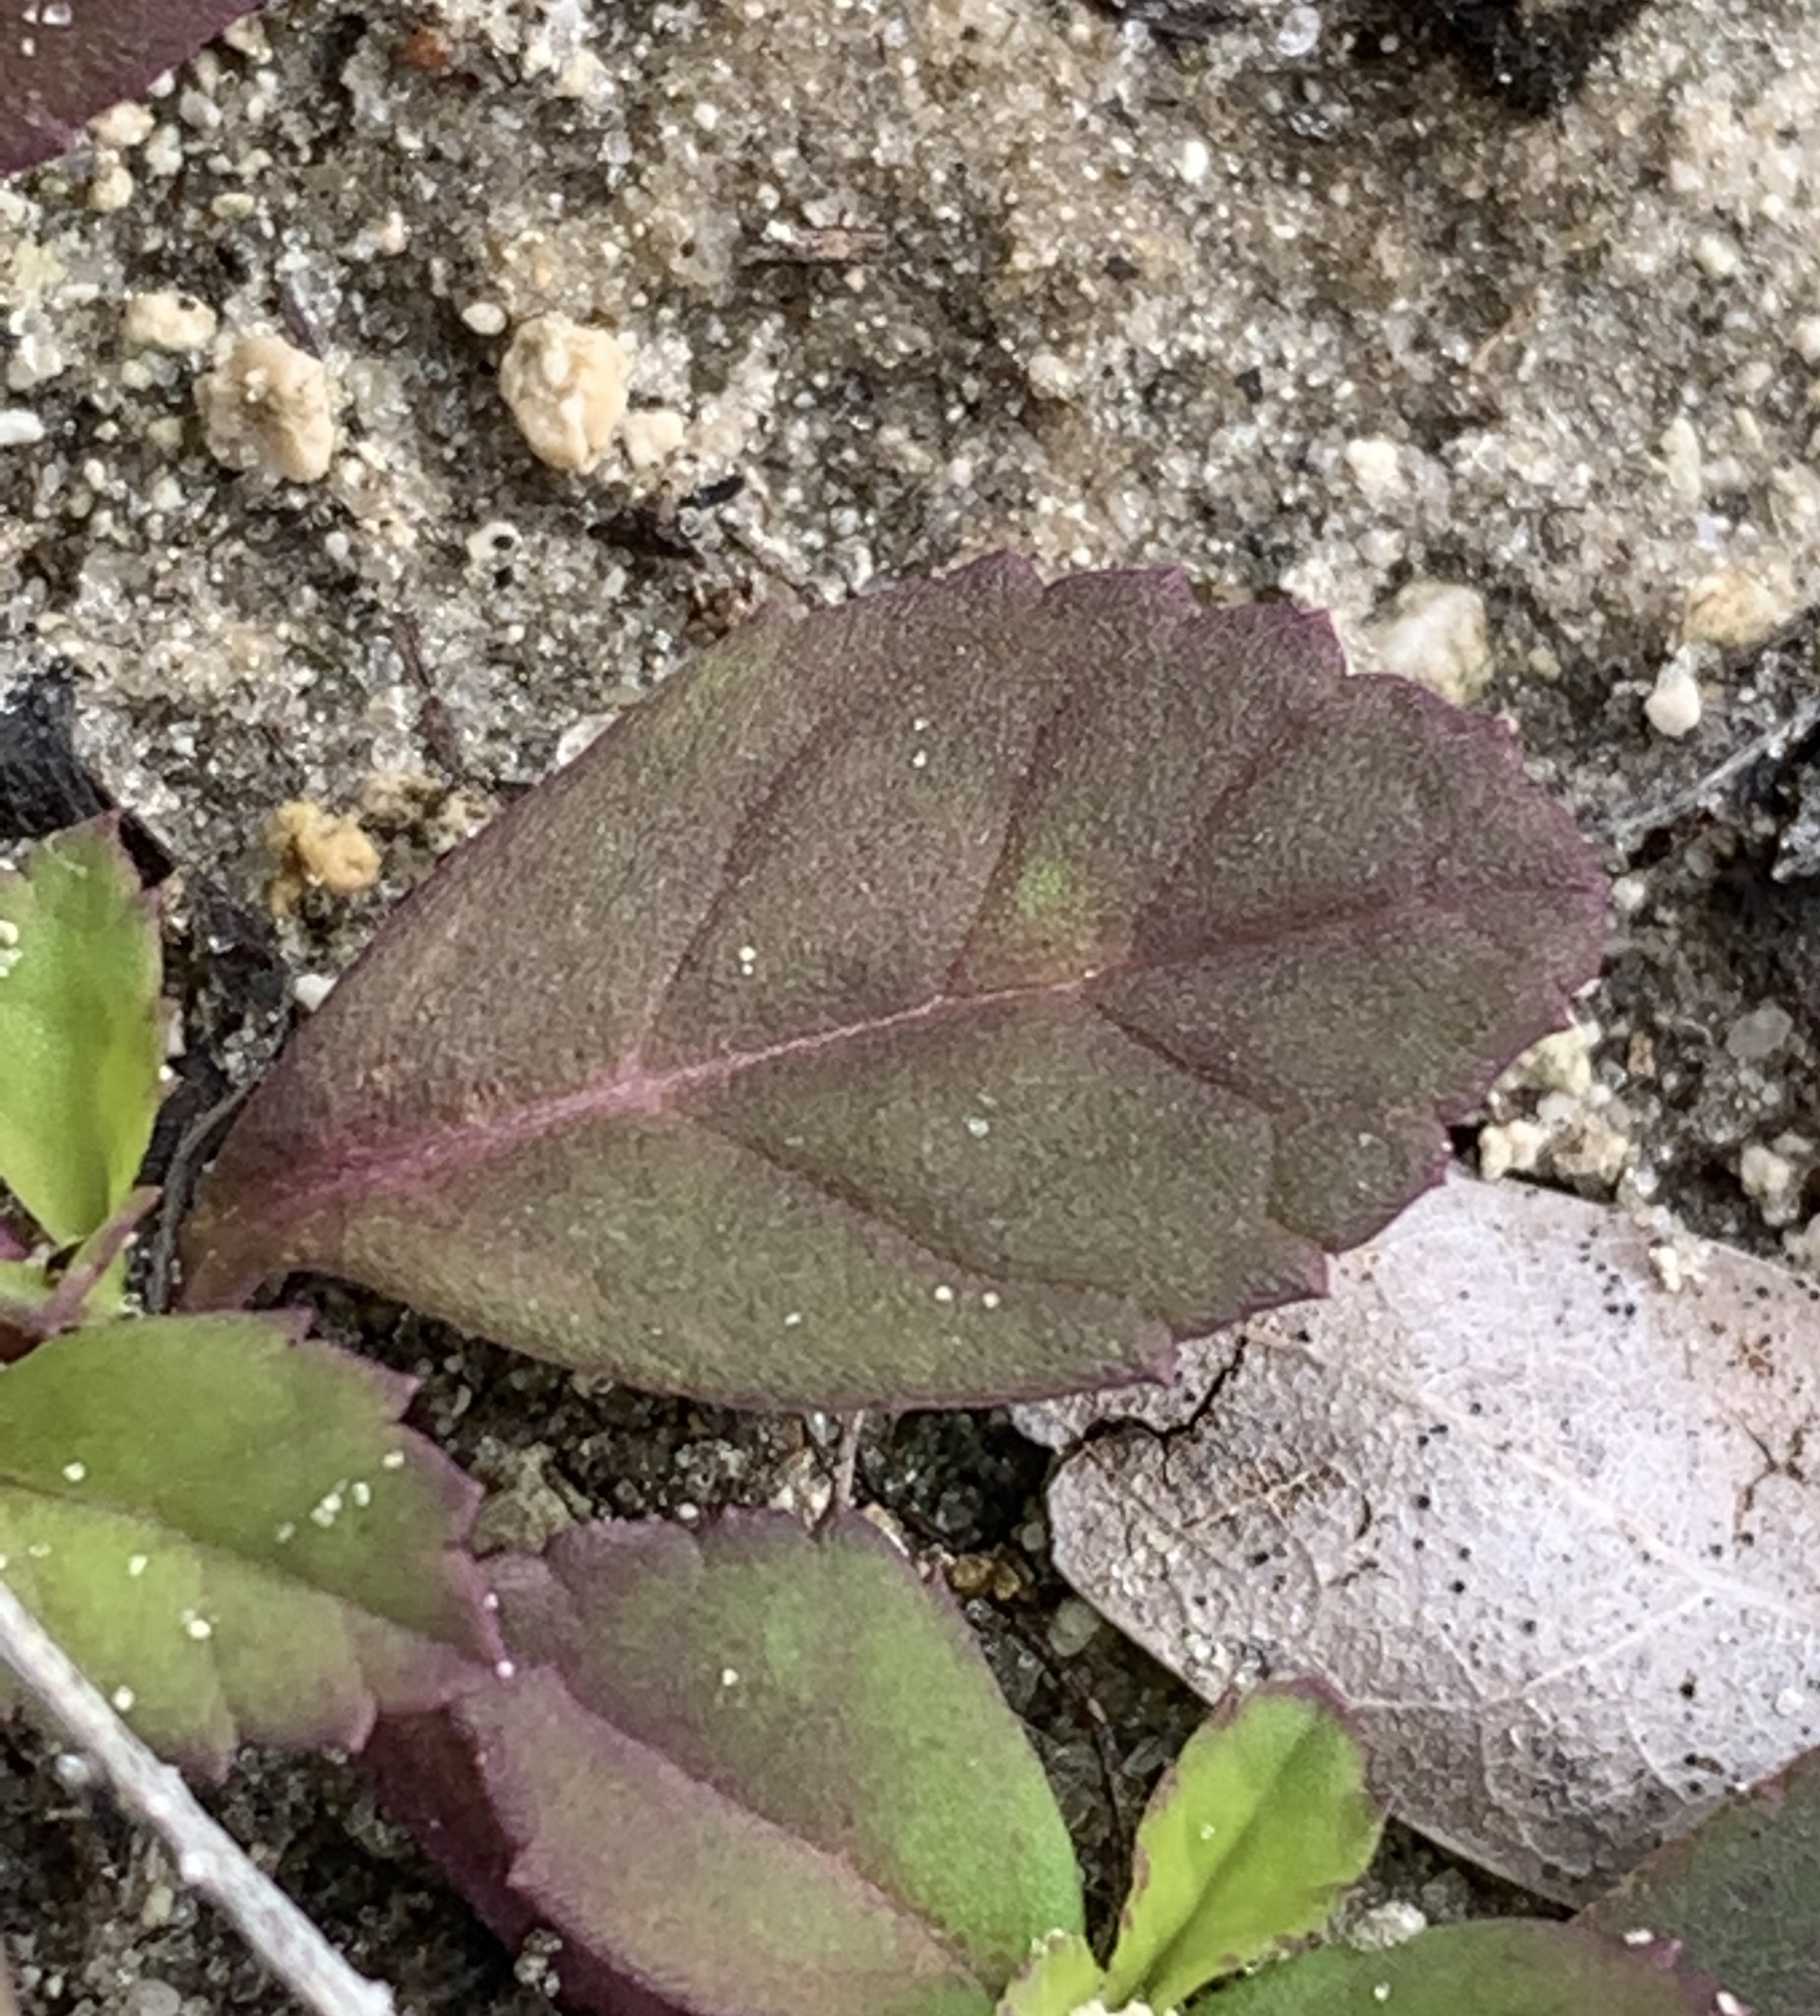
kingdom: Plantae
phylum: Tracheophyta
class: Magnoliopsida
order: Lamiales
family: Verbenaceae
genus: Phyla
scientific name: Phyla nodiflora
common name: Frogfruit
